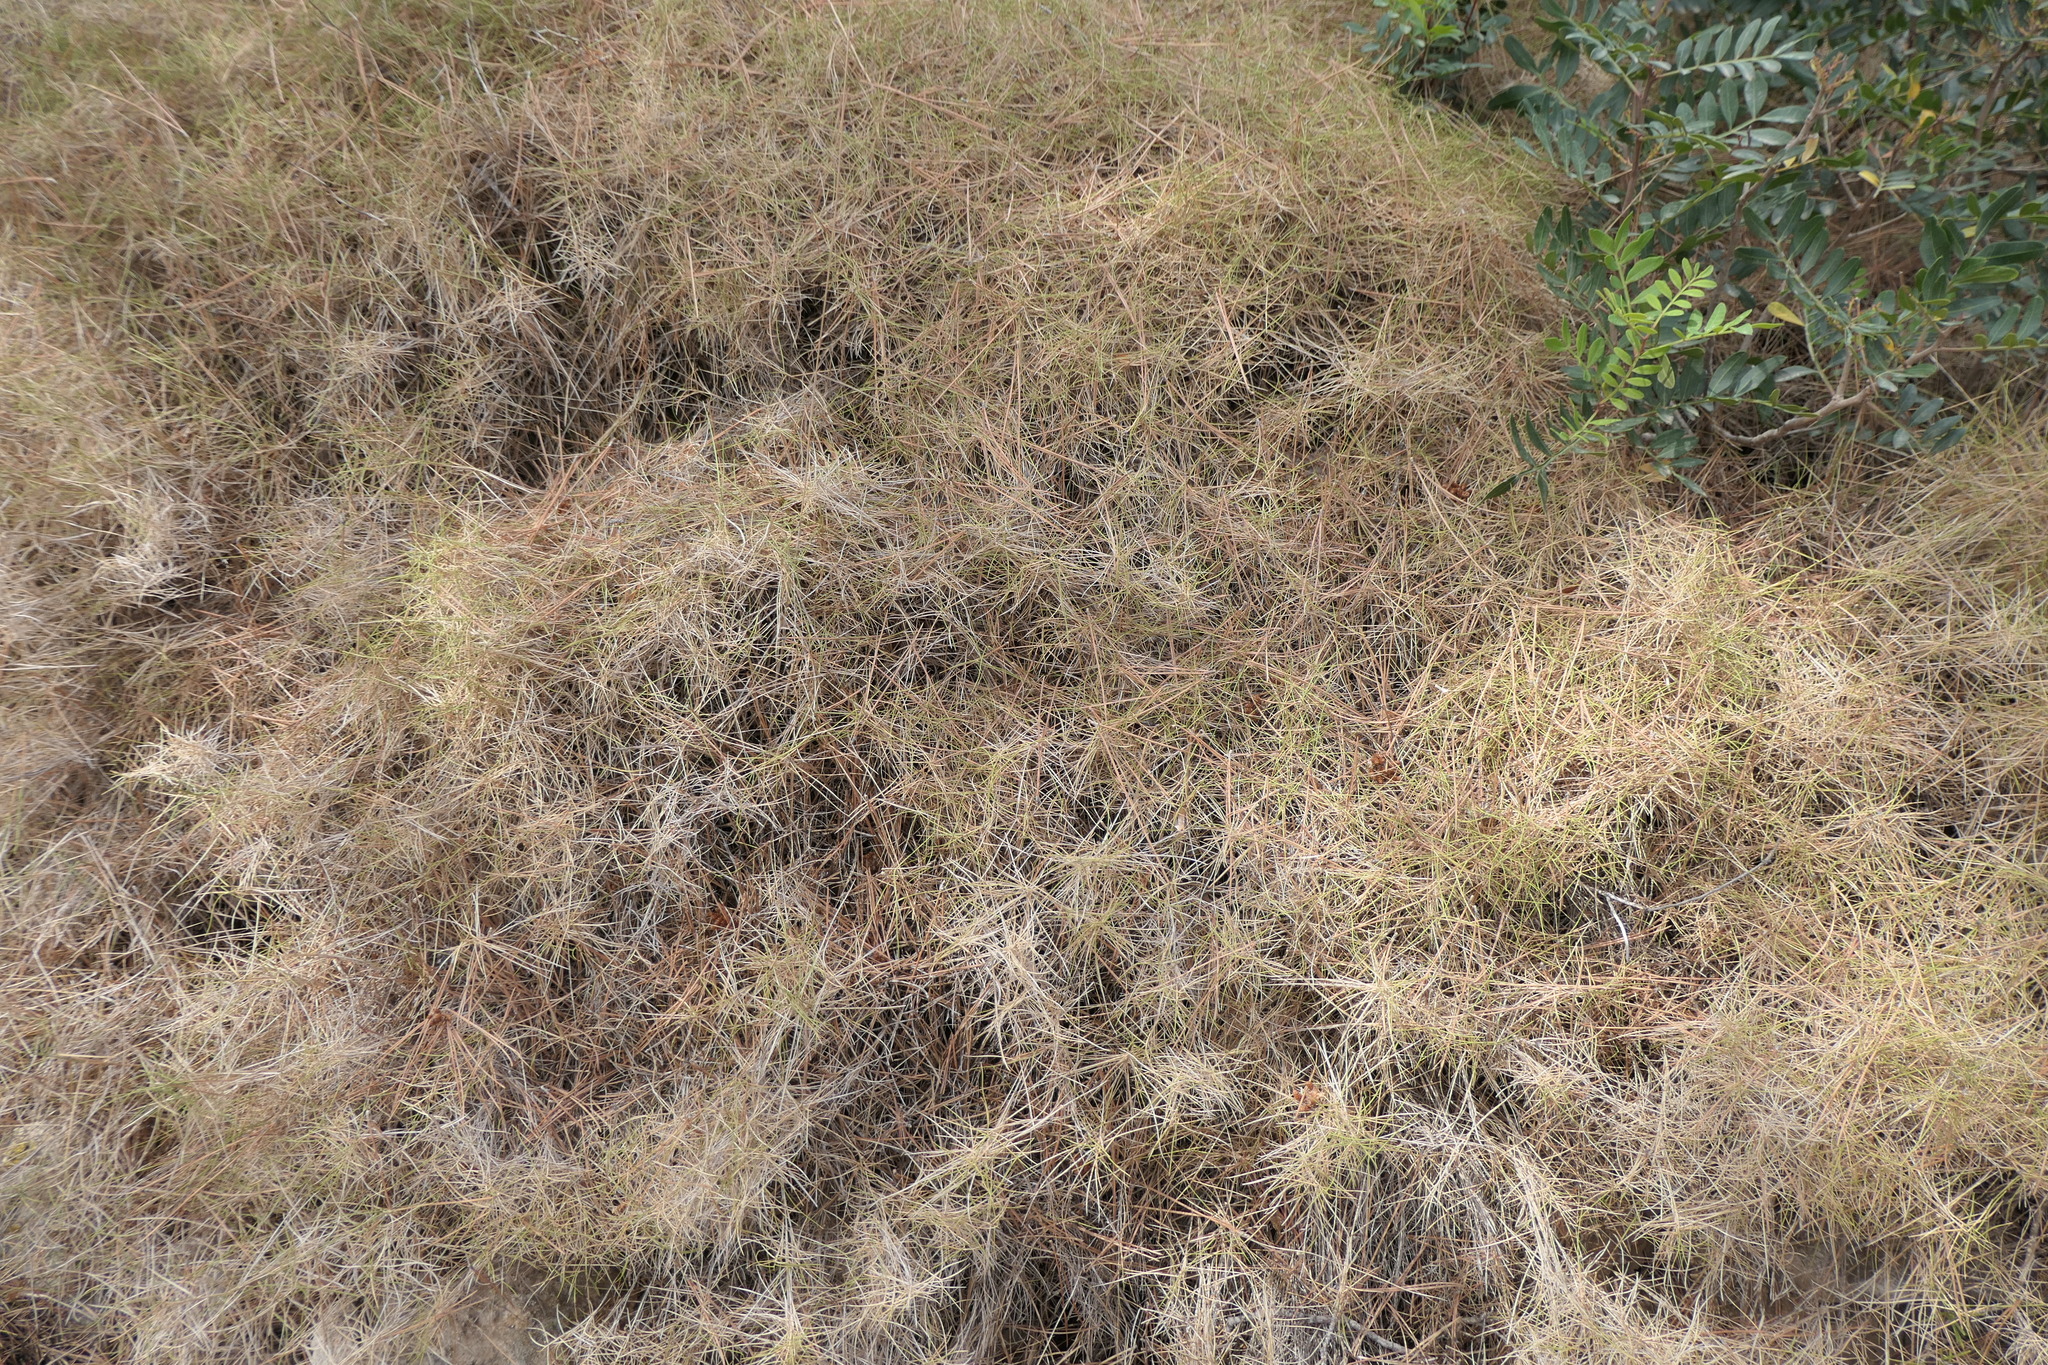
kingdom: Plantae
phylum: Tracheophyta
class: Liliopsida
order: Poales
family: Poaceae
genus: Brachypodium
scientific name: Brachypodium retusum
